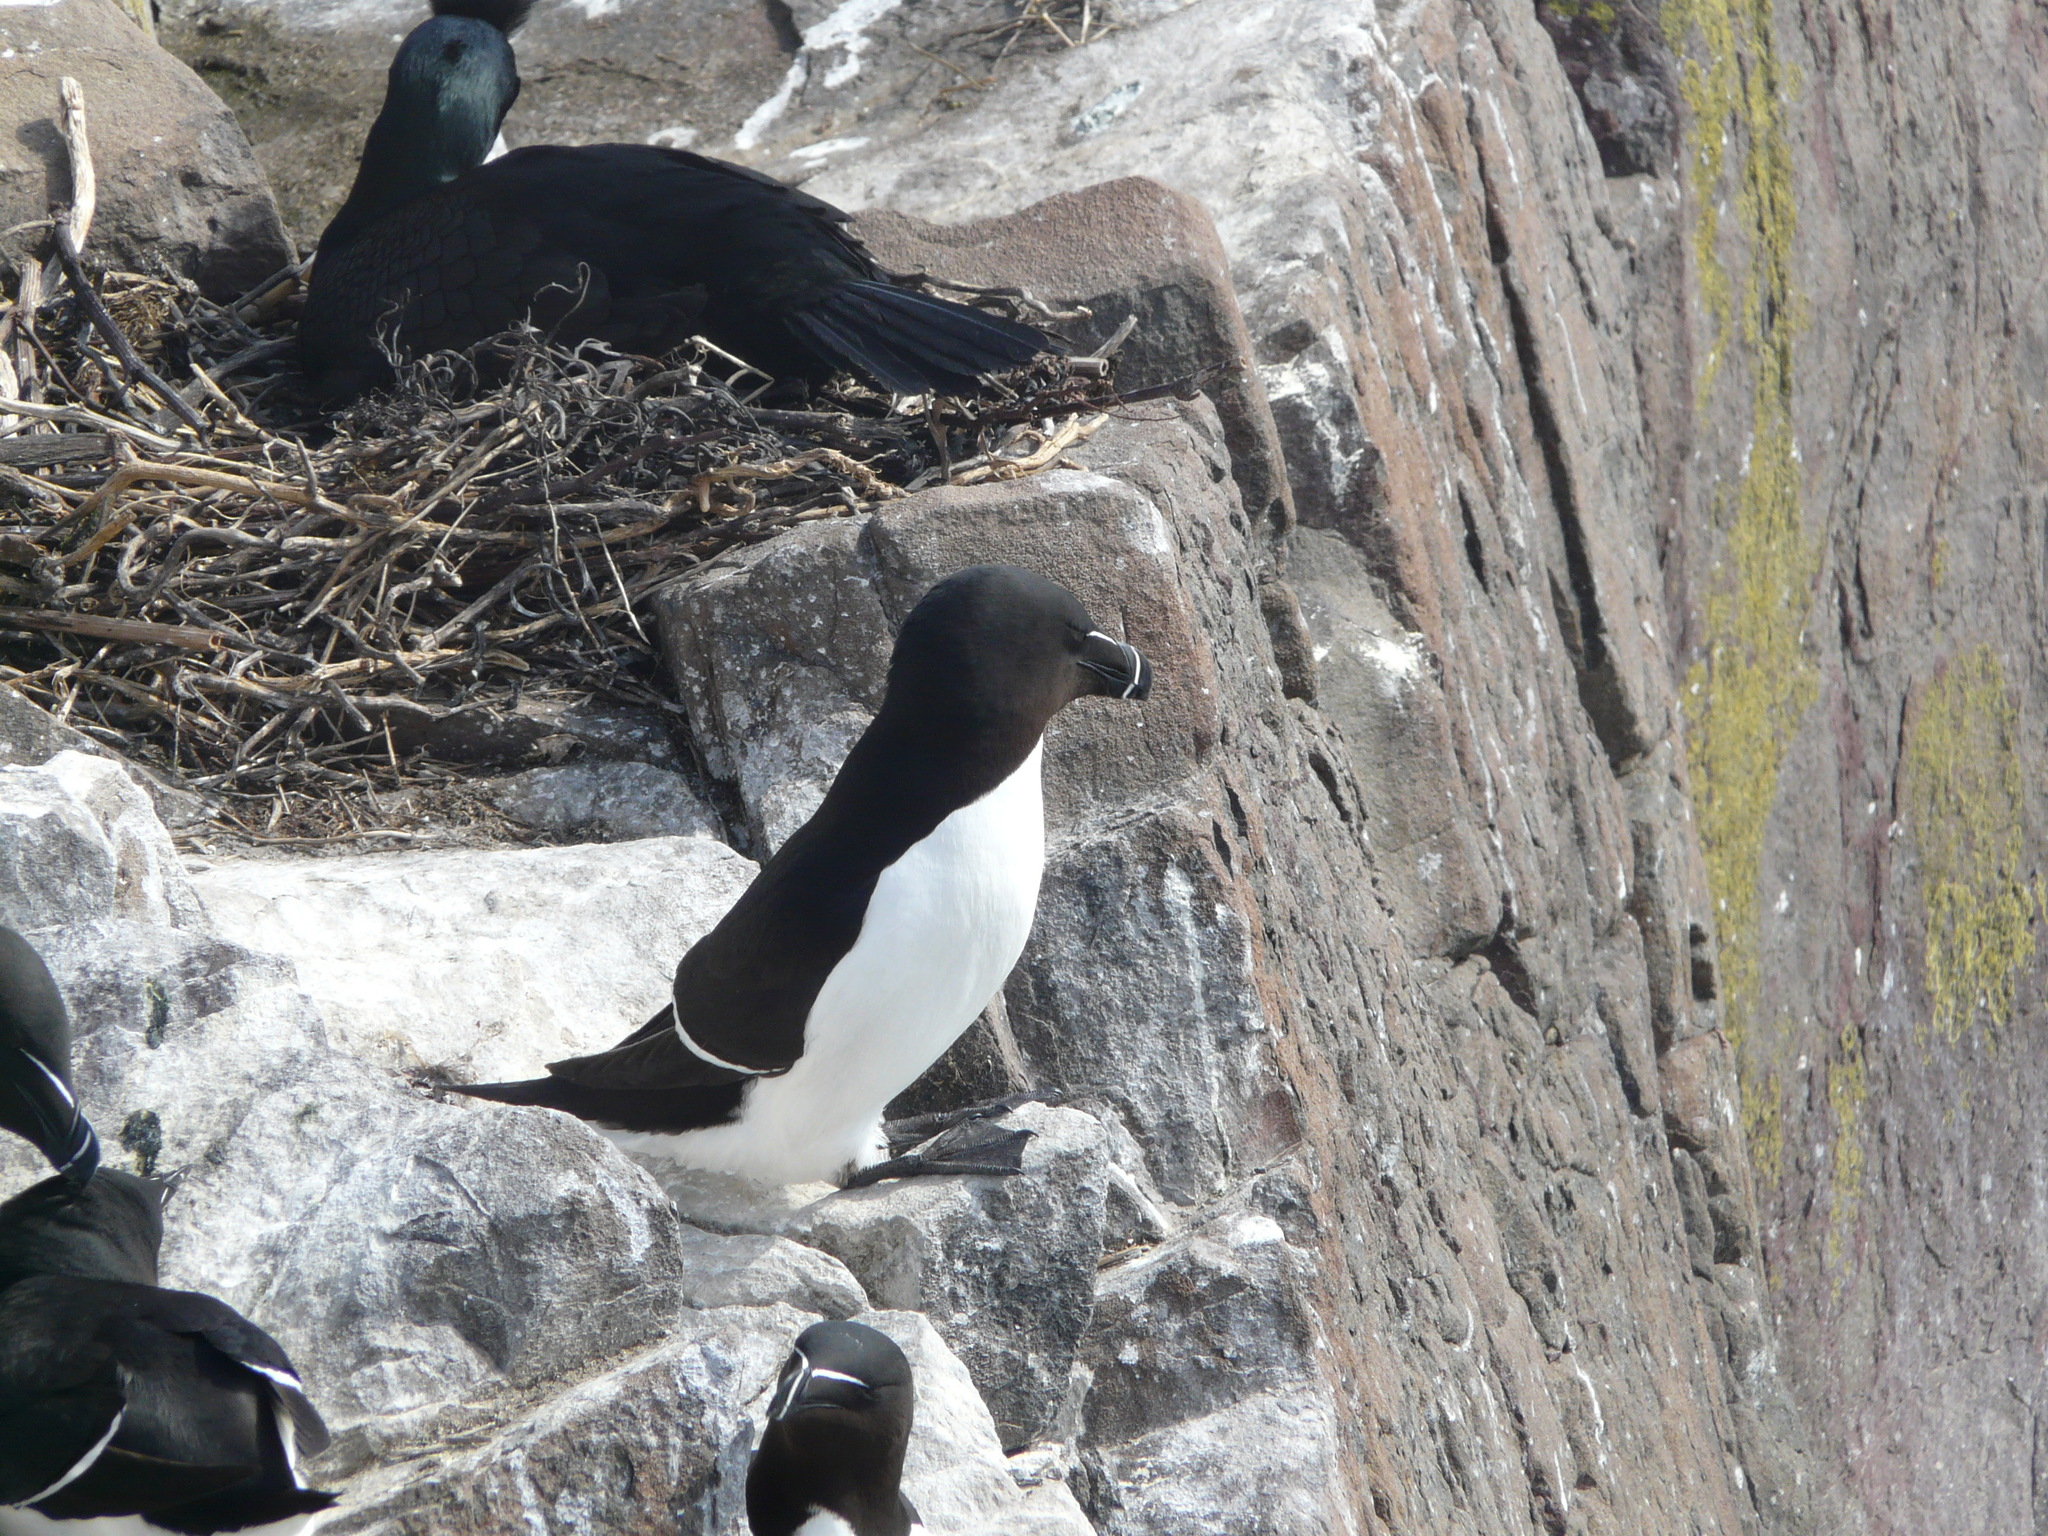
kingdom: Animalia
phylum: Chordata
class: Aves
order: Charadriiformes
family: Alcidae
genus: Alca
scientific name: Alca torda
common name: Razorbill
